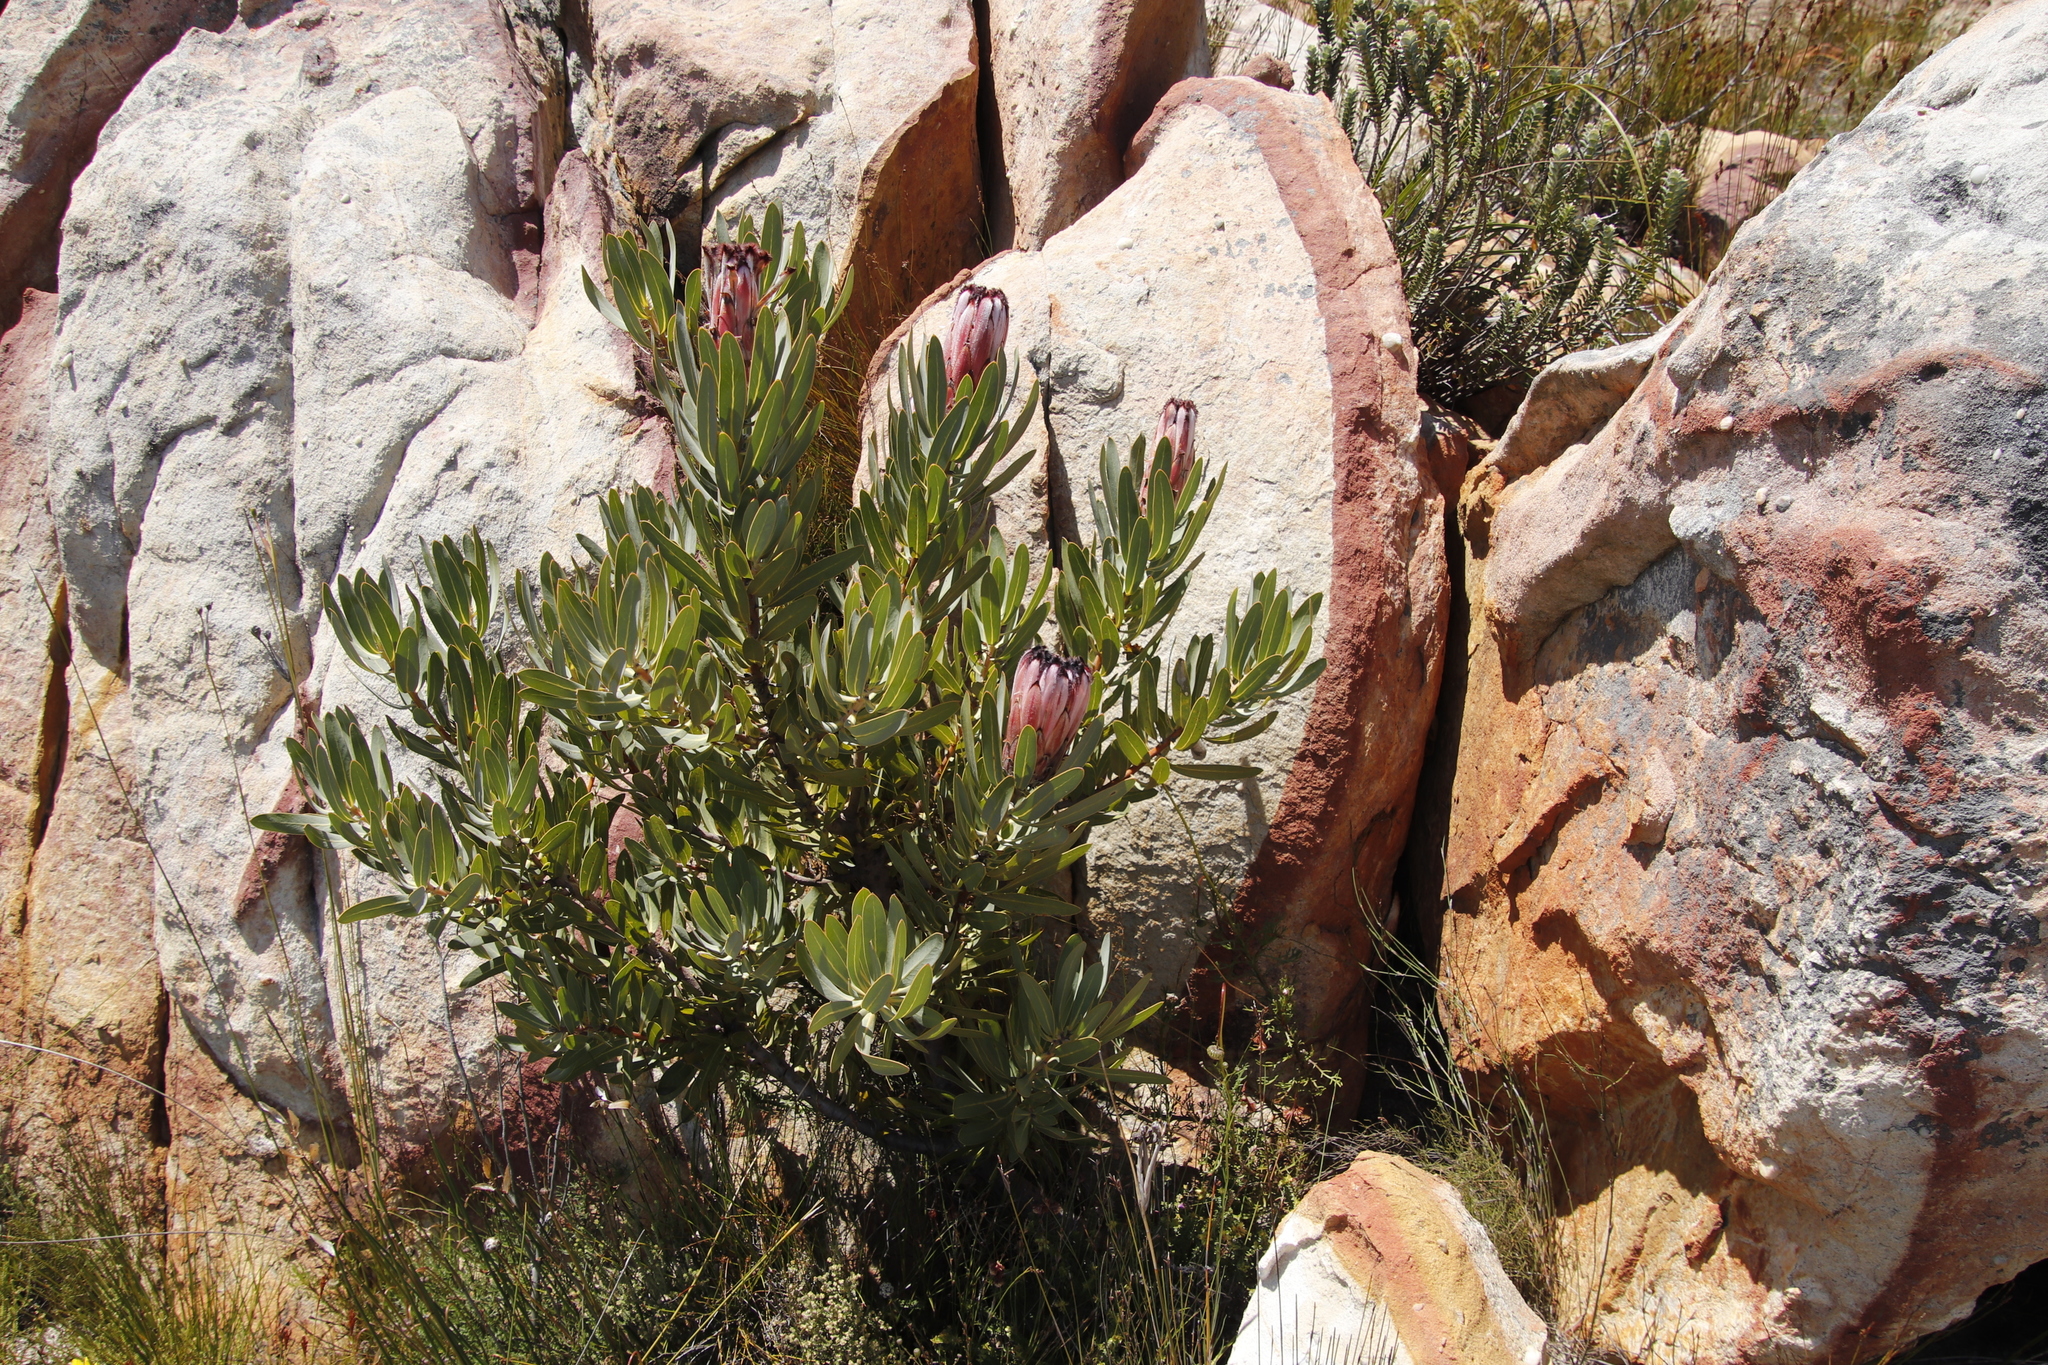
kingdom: Plantae
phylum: Tracheophyta
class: Magnoliopsida
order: Proteales
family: Proteaceae
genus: Protea
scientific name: Protea laurifolia
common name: Grey-leaf sugarbsh
